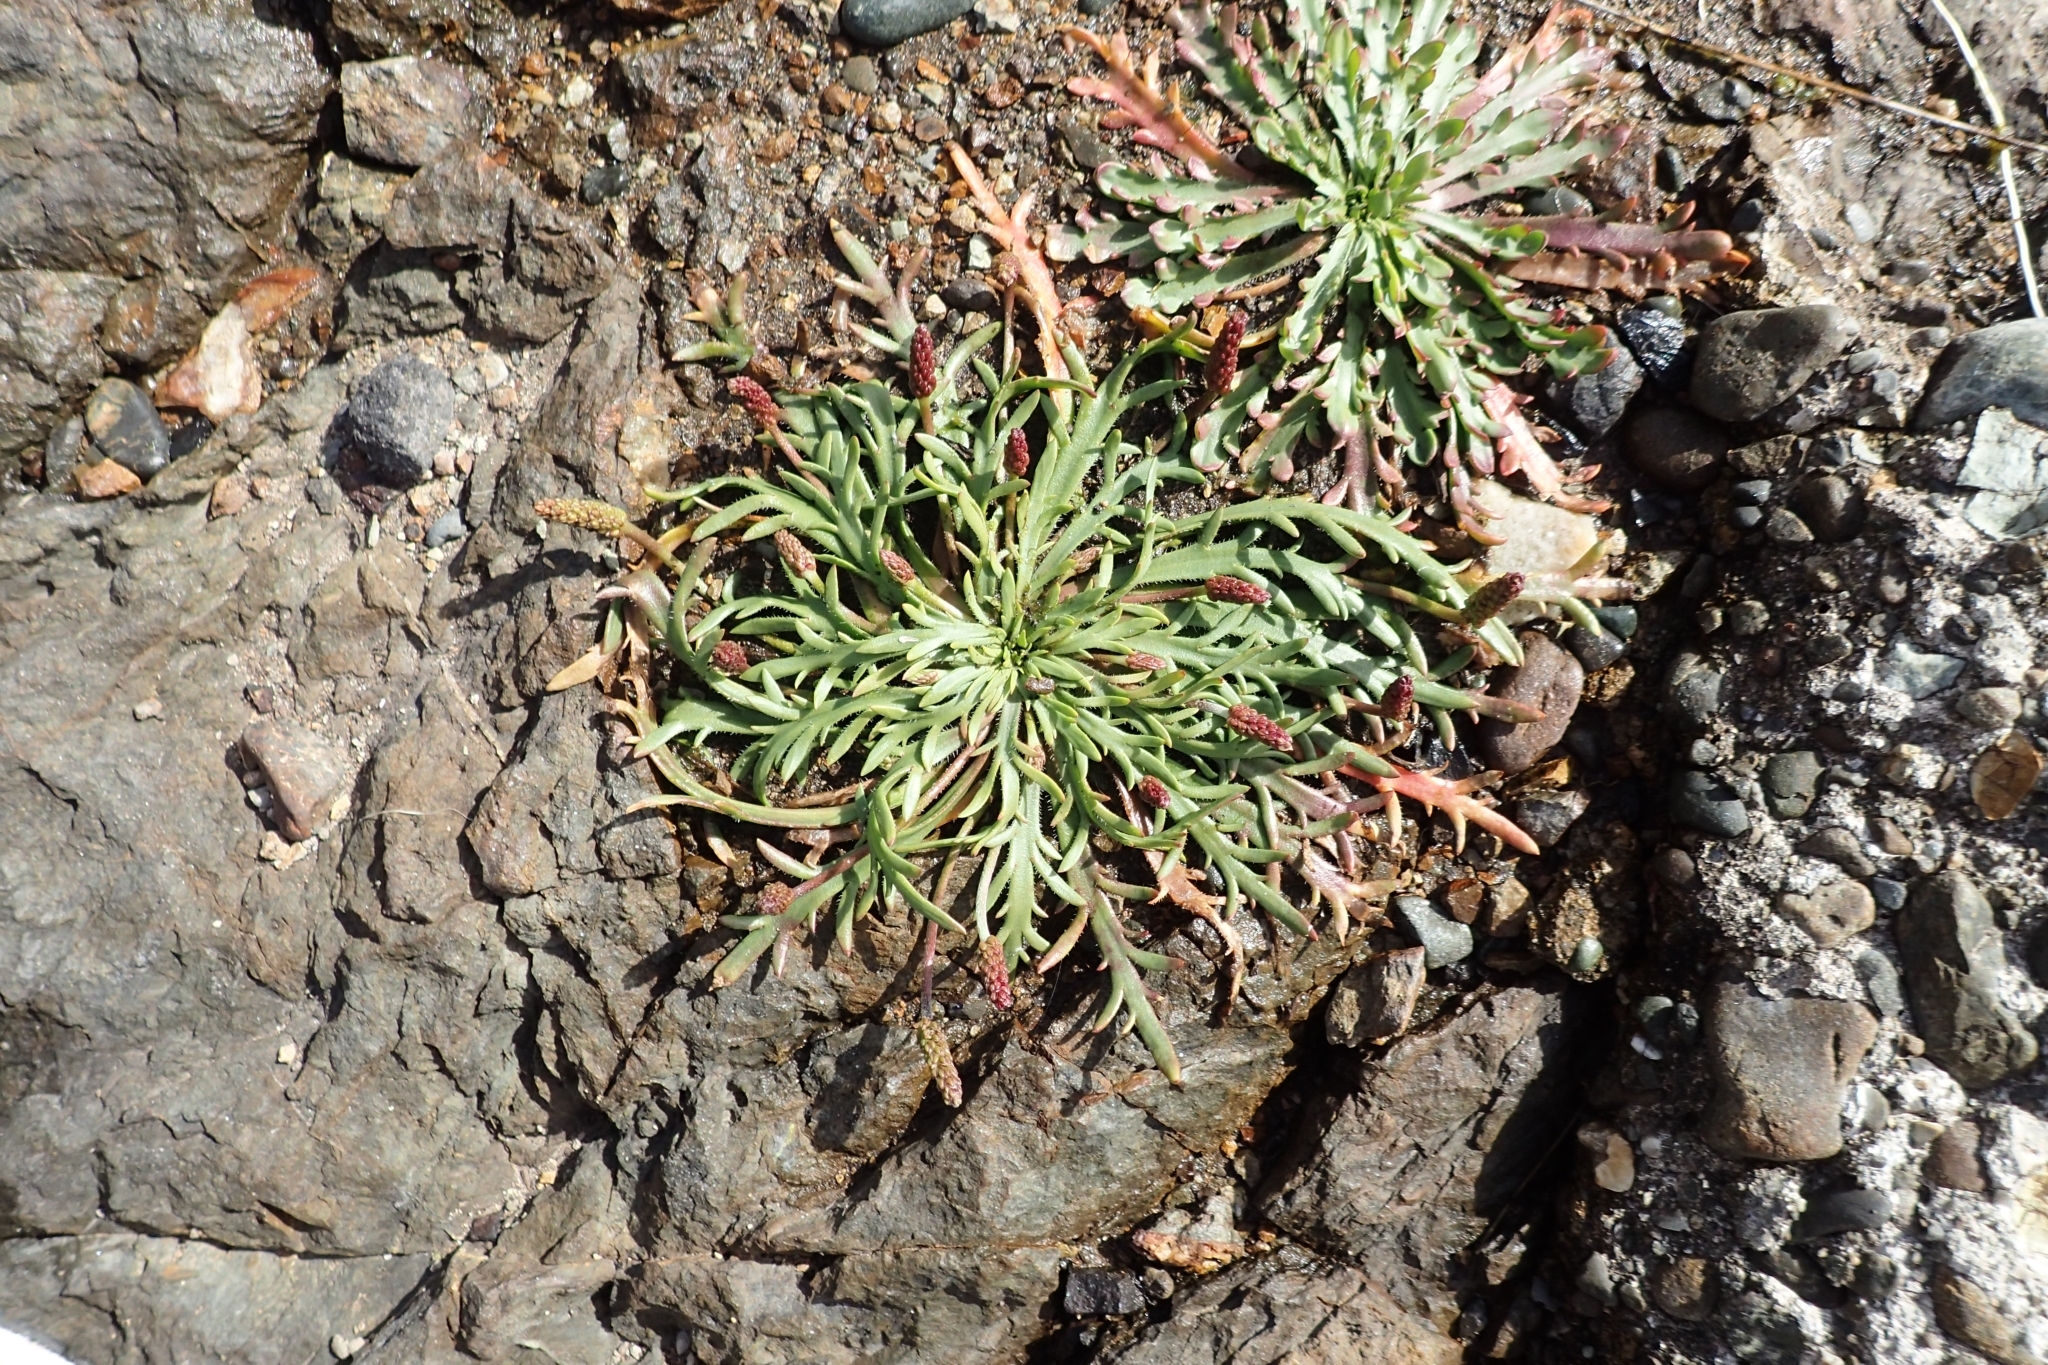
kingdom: Plantae
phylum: Tracheophyta
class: Magnoliopsida
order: Lamiales
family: Plantaginaceae
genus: Plantago
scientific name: Plantago coronopus
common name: Buck's-horn plantain
